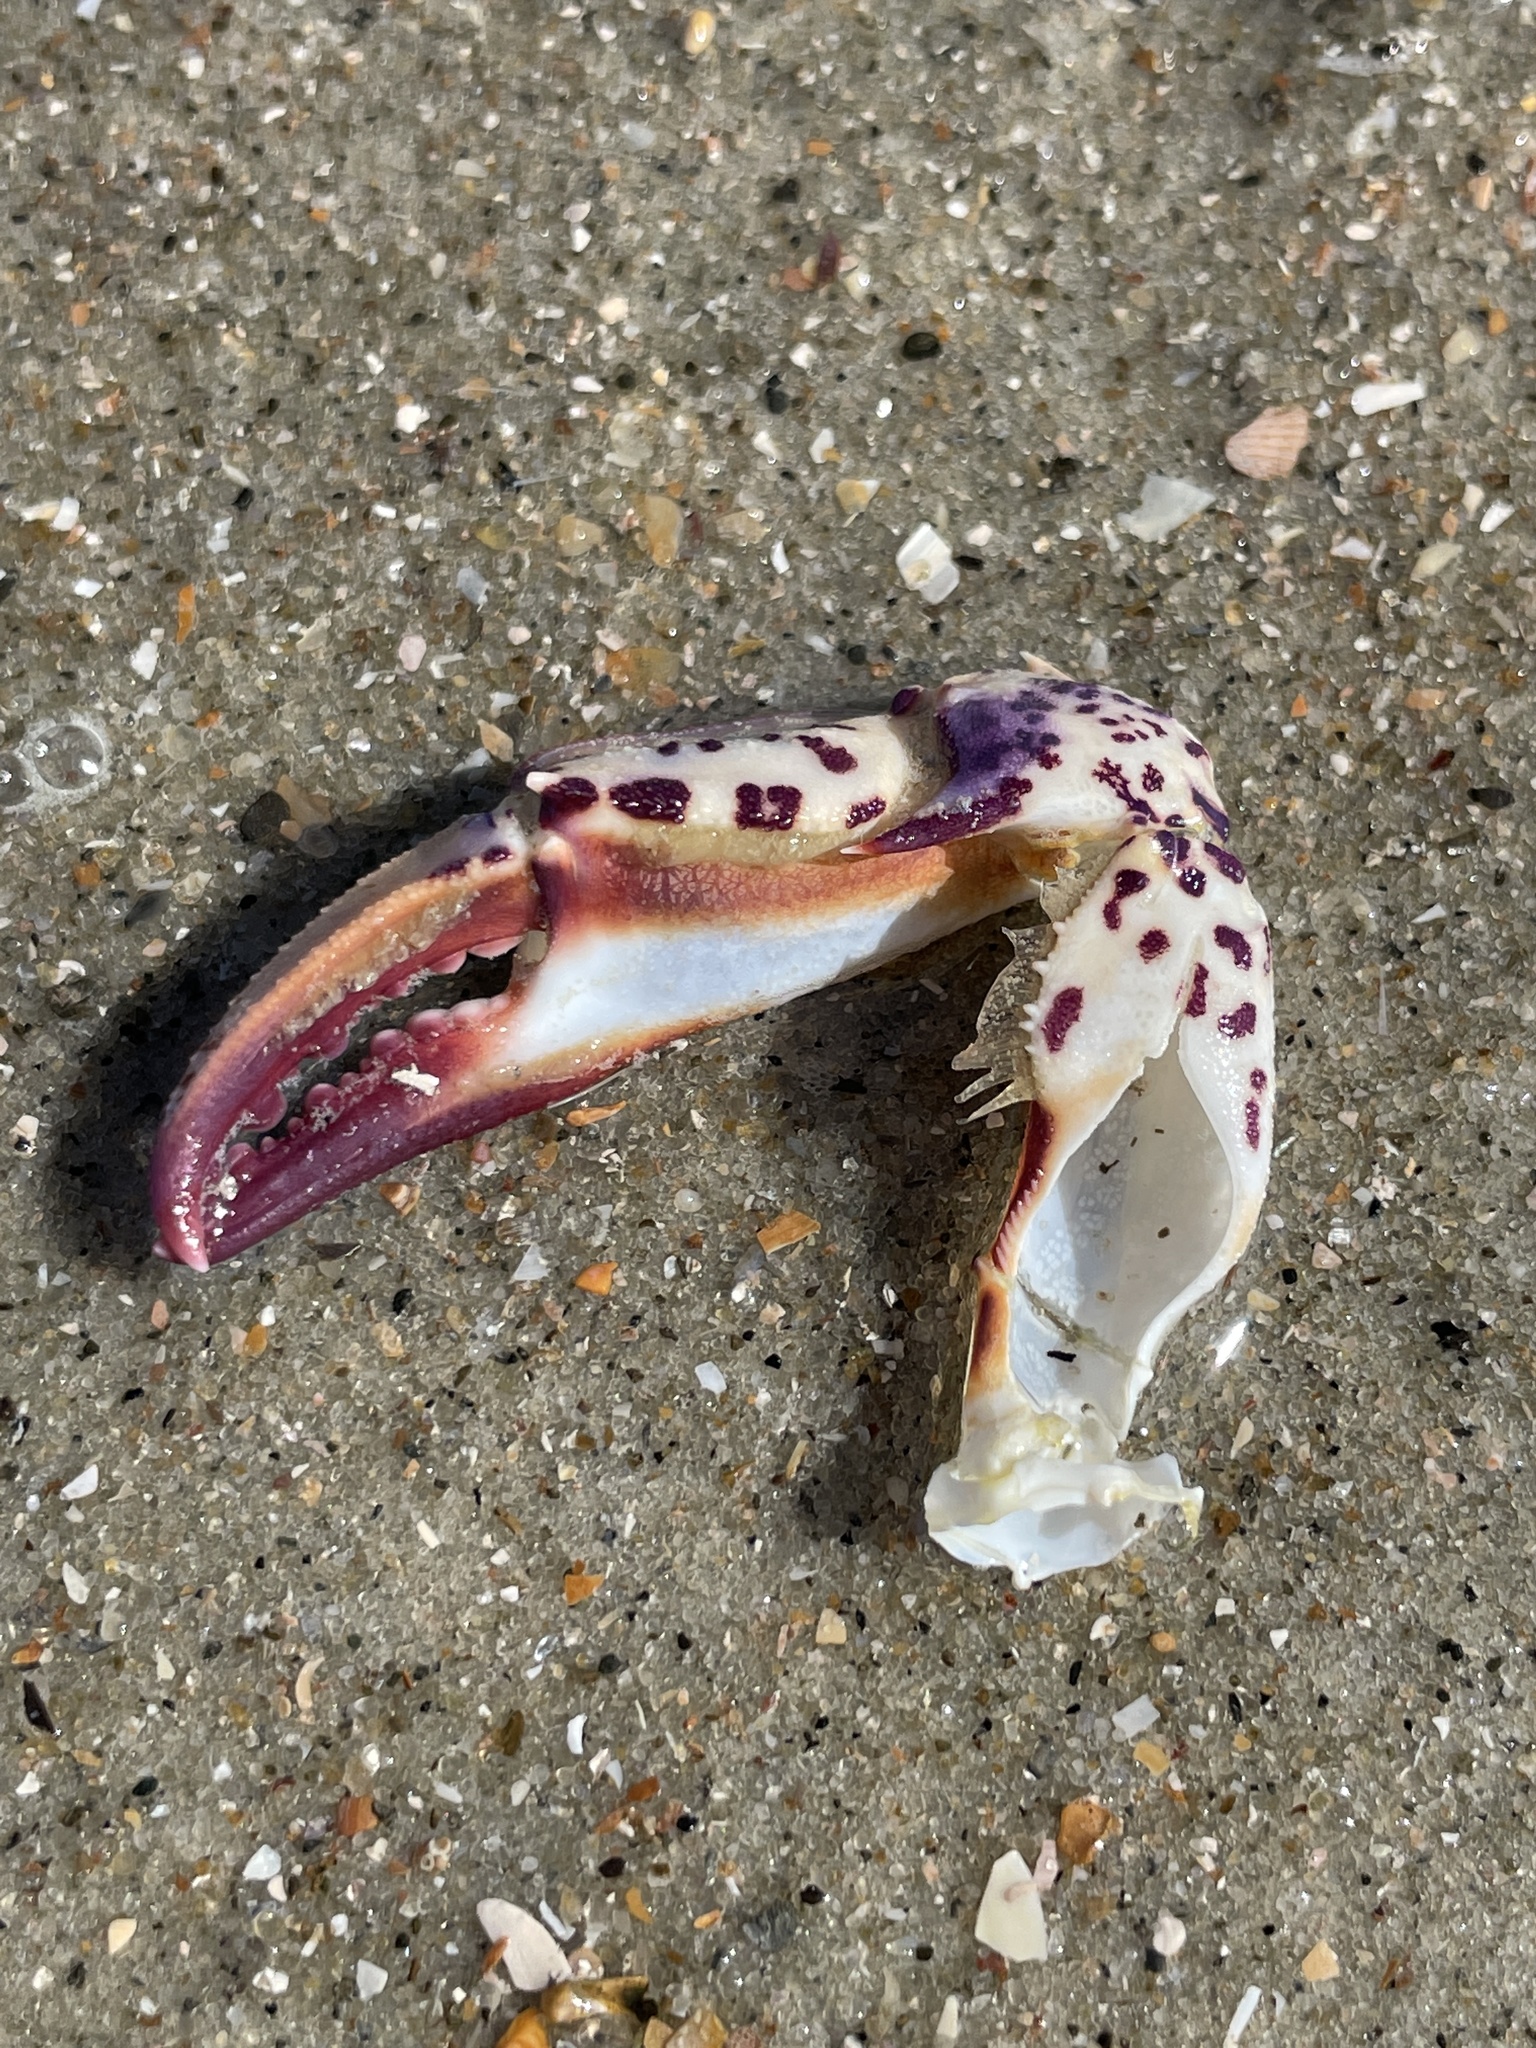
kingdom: Animalia
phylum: Arthropoda
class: Malacostraca
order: Decapoda
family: Ovalipidae
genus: Ovalipes
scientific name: Ovalipes ocellatus
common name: Lady crab
